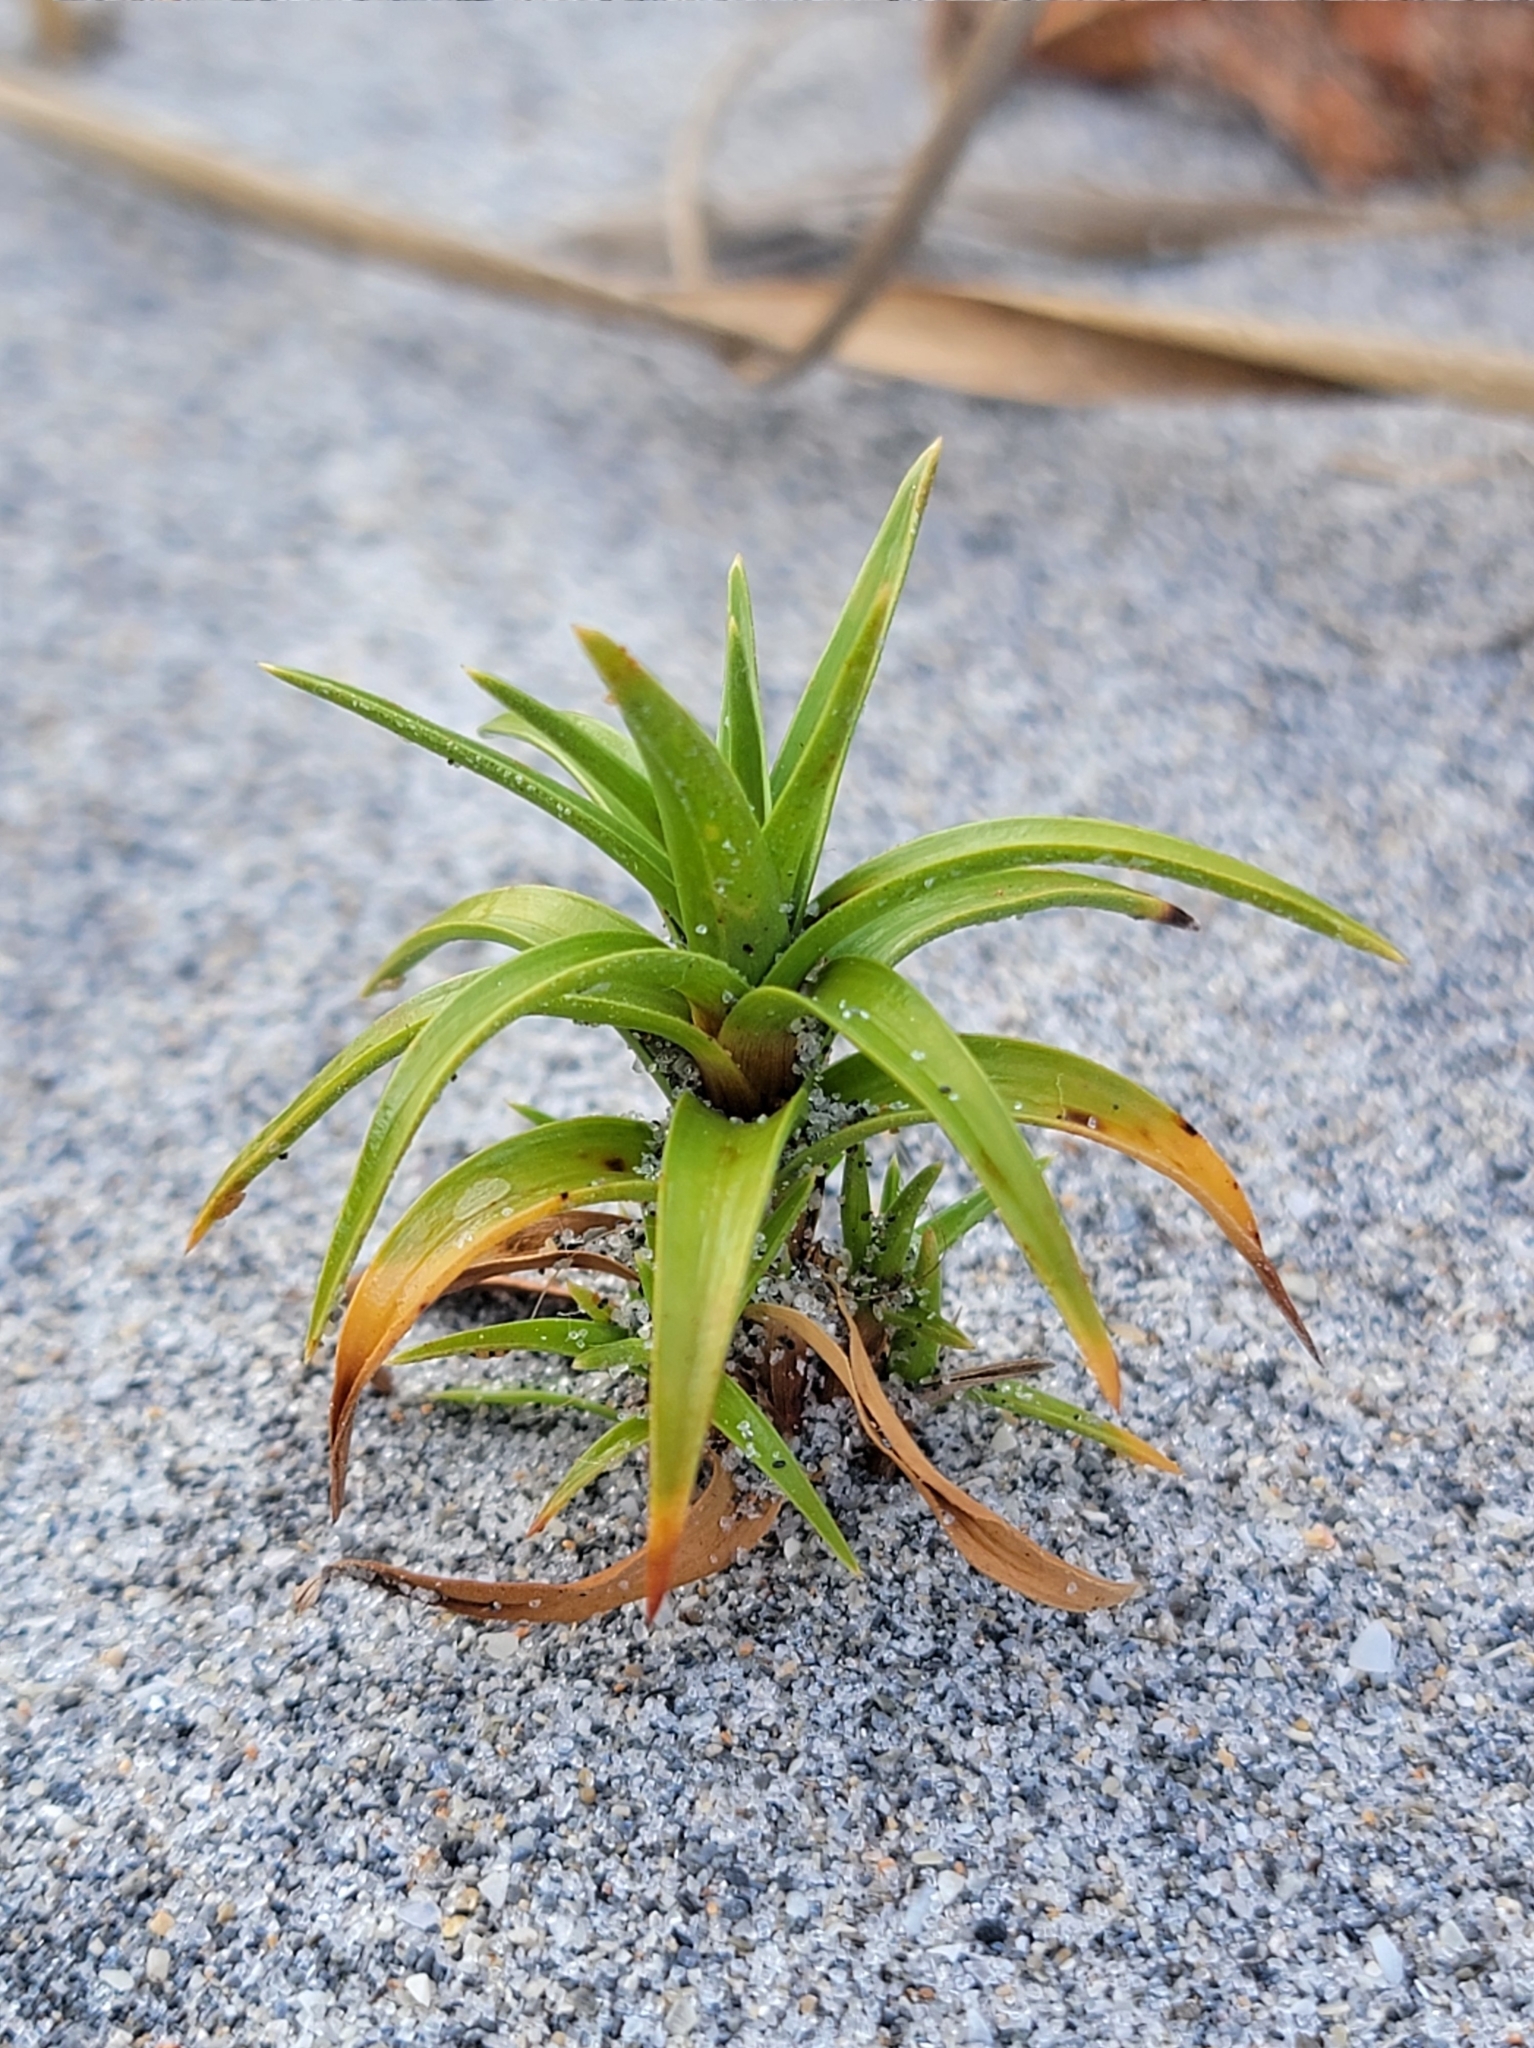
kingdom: Plantae
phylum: Tracheophyta
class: Liliopsida
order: Poales
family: Cyperaceae
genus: Cyperus
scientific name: Cyperus pedunculatus
